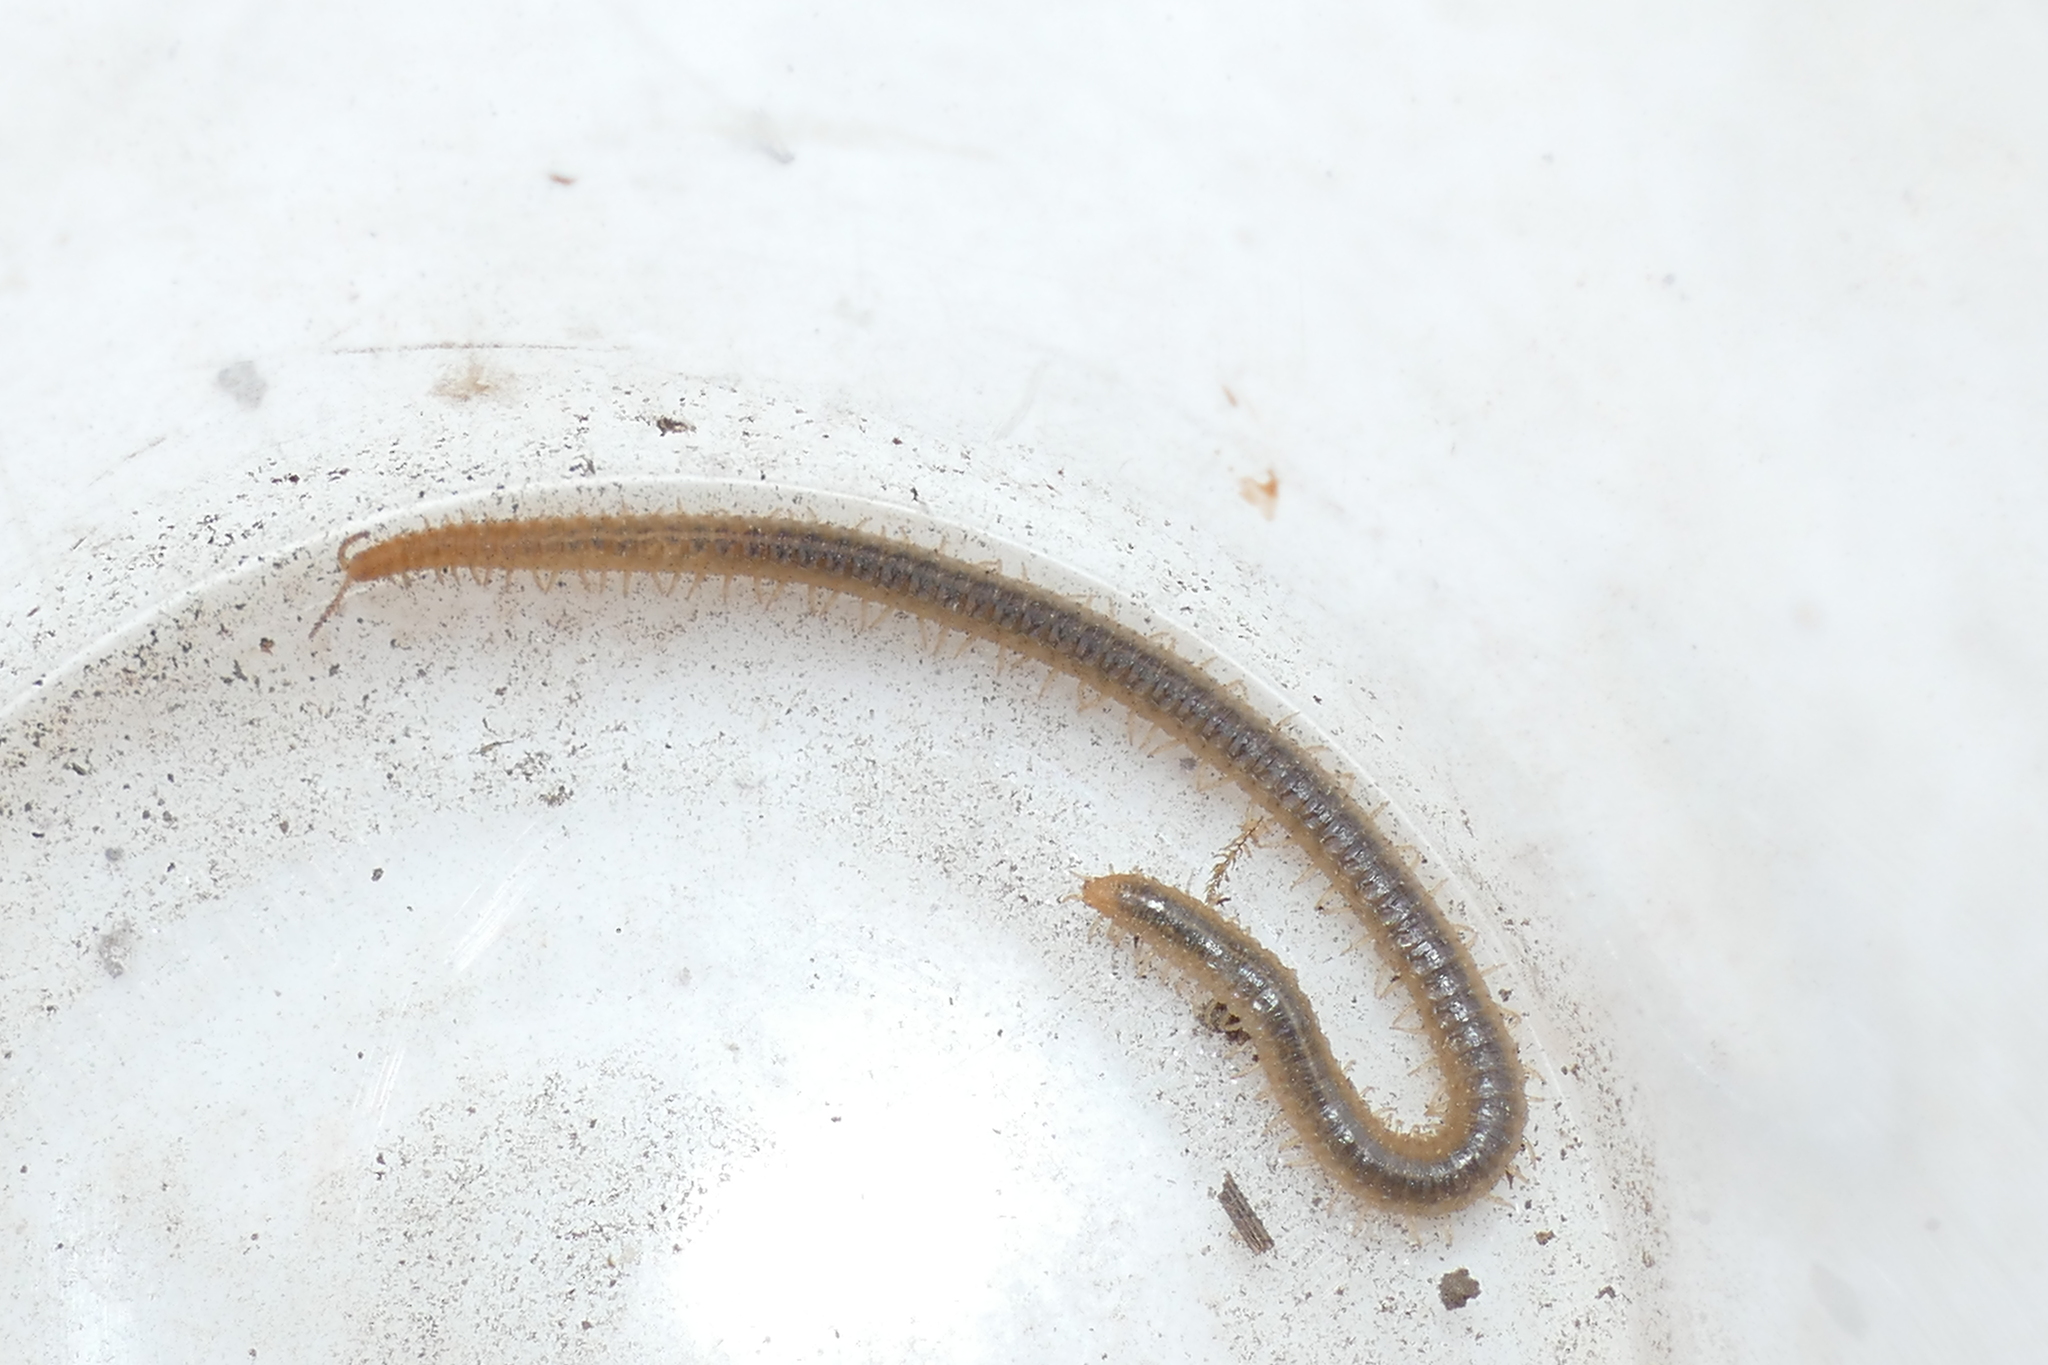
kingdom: Animalia
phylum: Arthropoda
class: Chilopoda
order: Geophilomorpha
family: Dignathodontidae
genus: Henia
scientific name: Henia vesuviana
